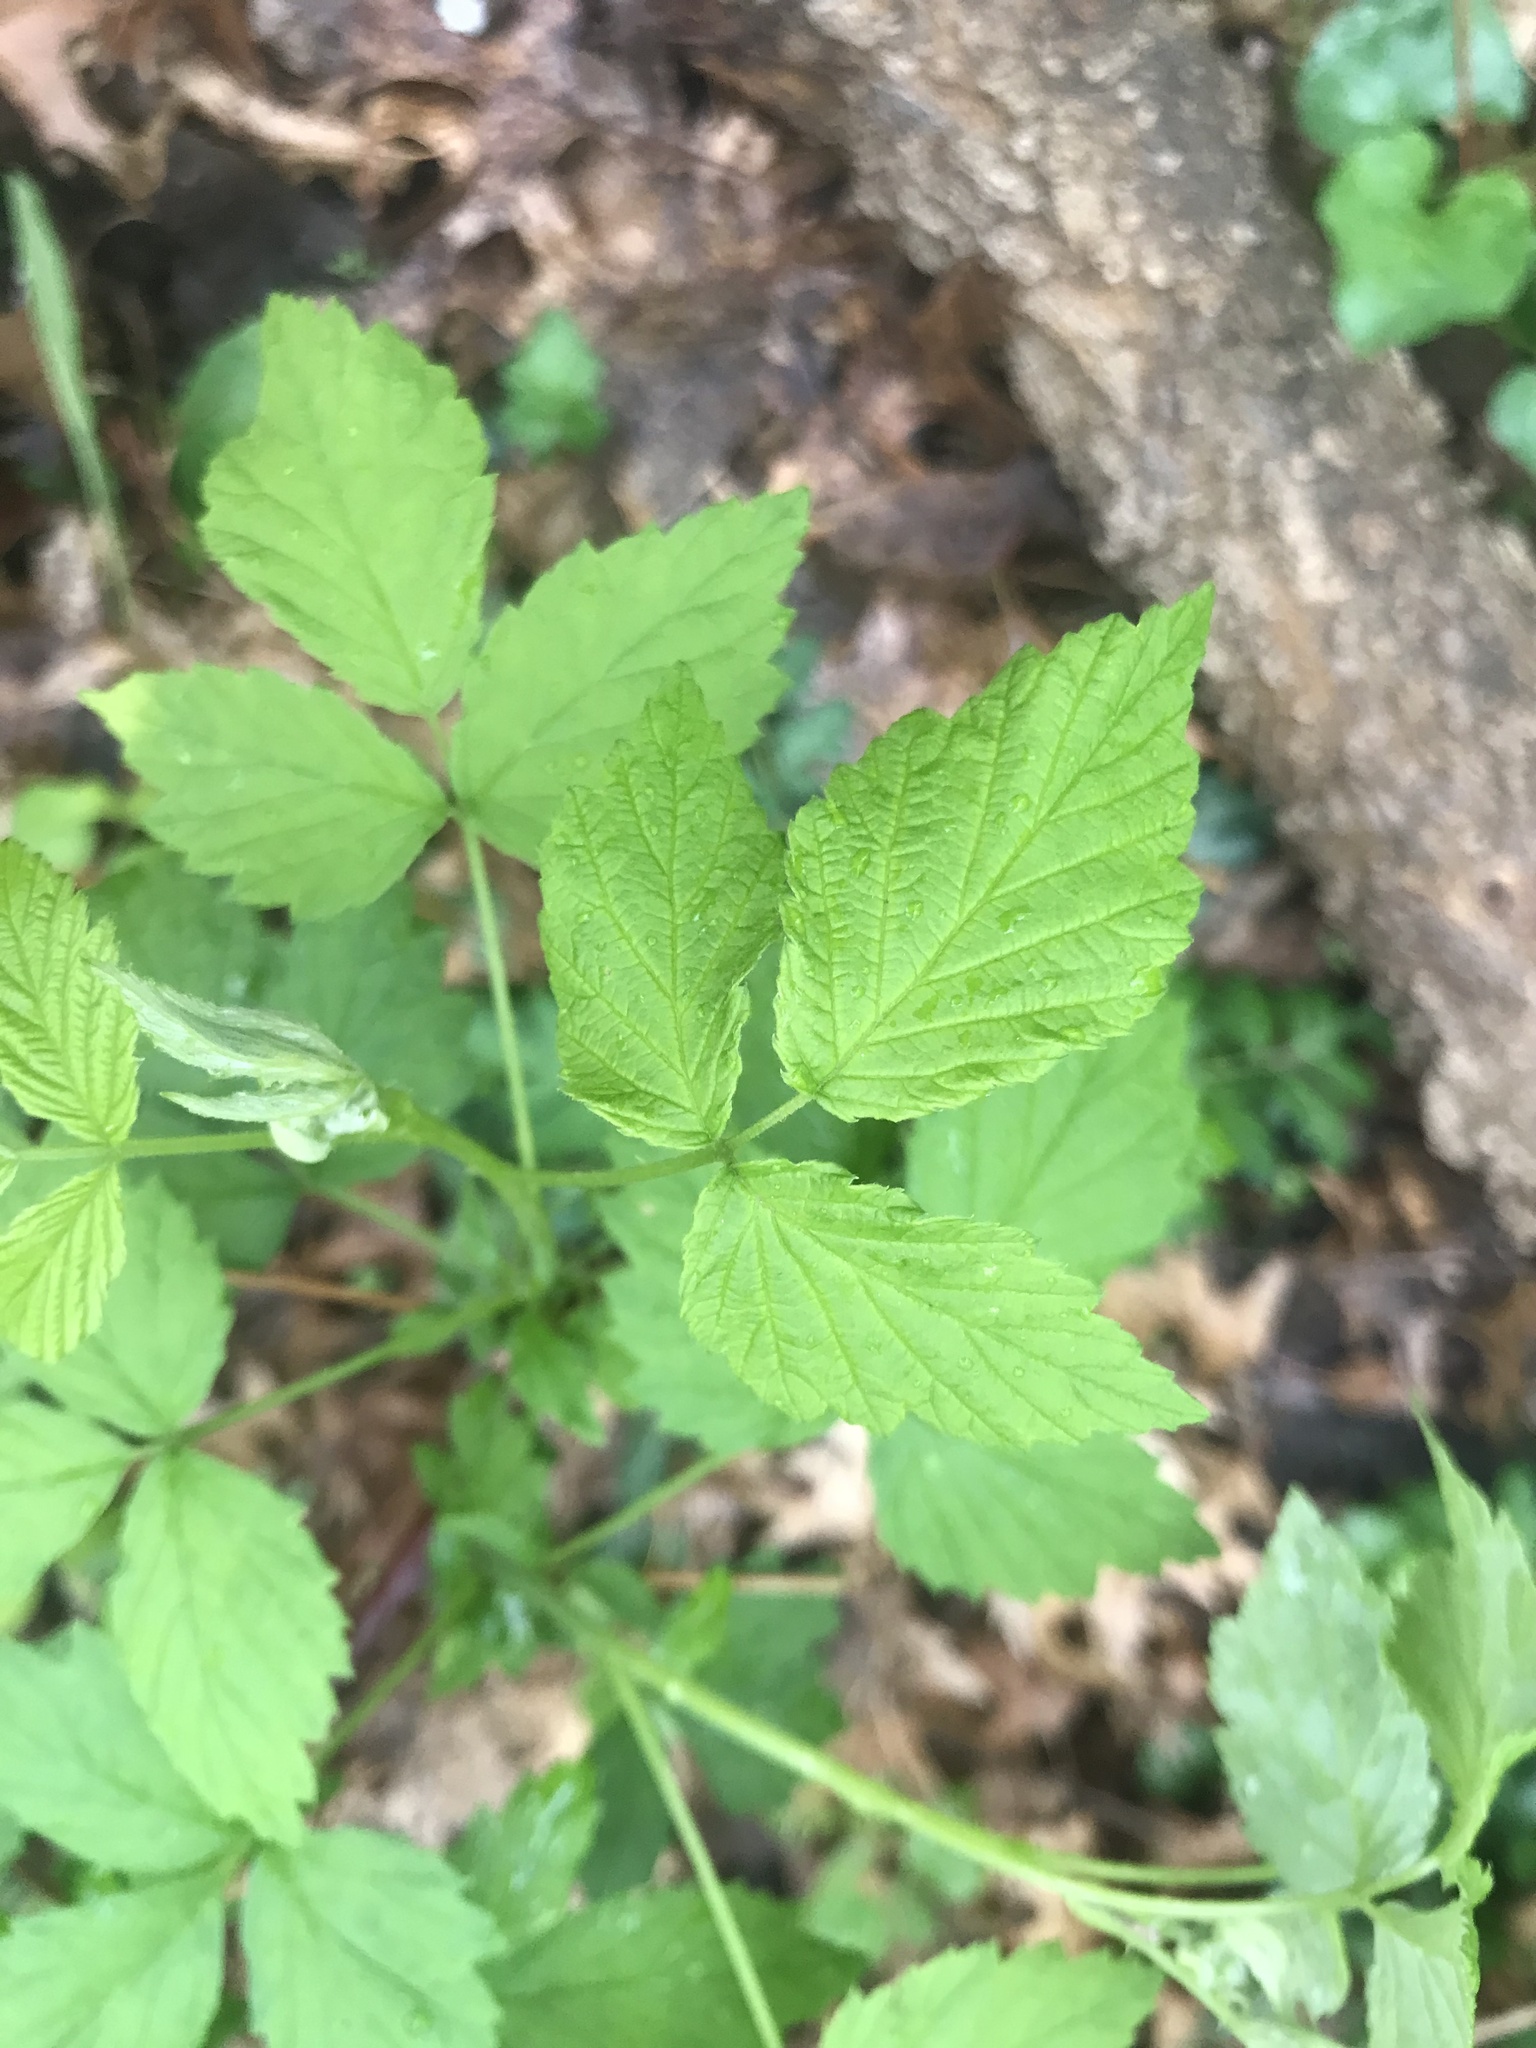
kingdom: Plantae
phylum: Tracheophyta
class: Magnoliopsida
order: Rosales
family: Rosaceae
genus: Rubus
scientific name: Rubus occidentalis
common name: Black raspberry
